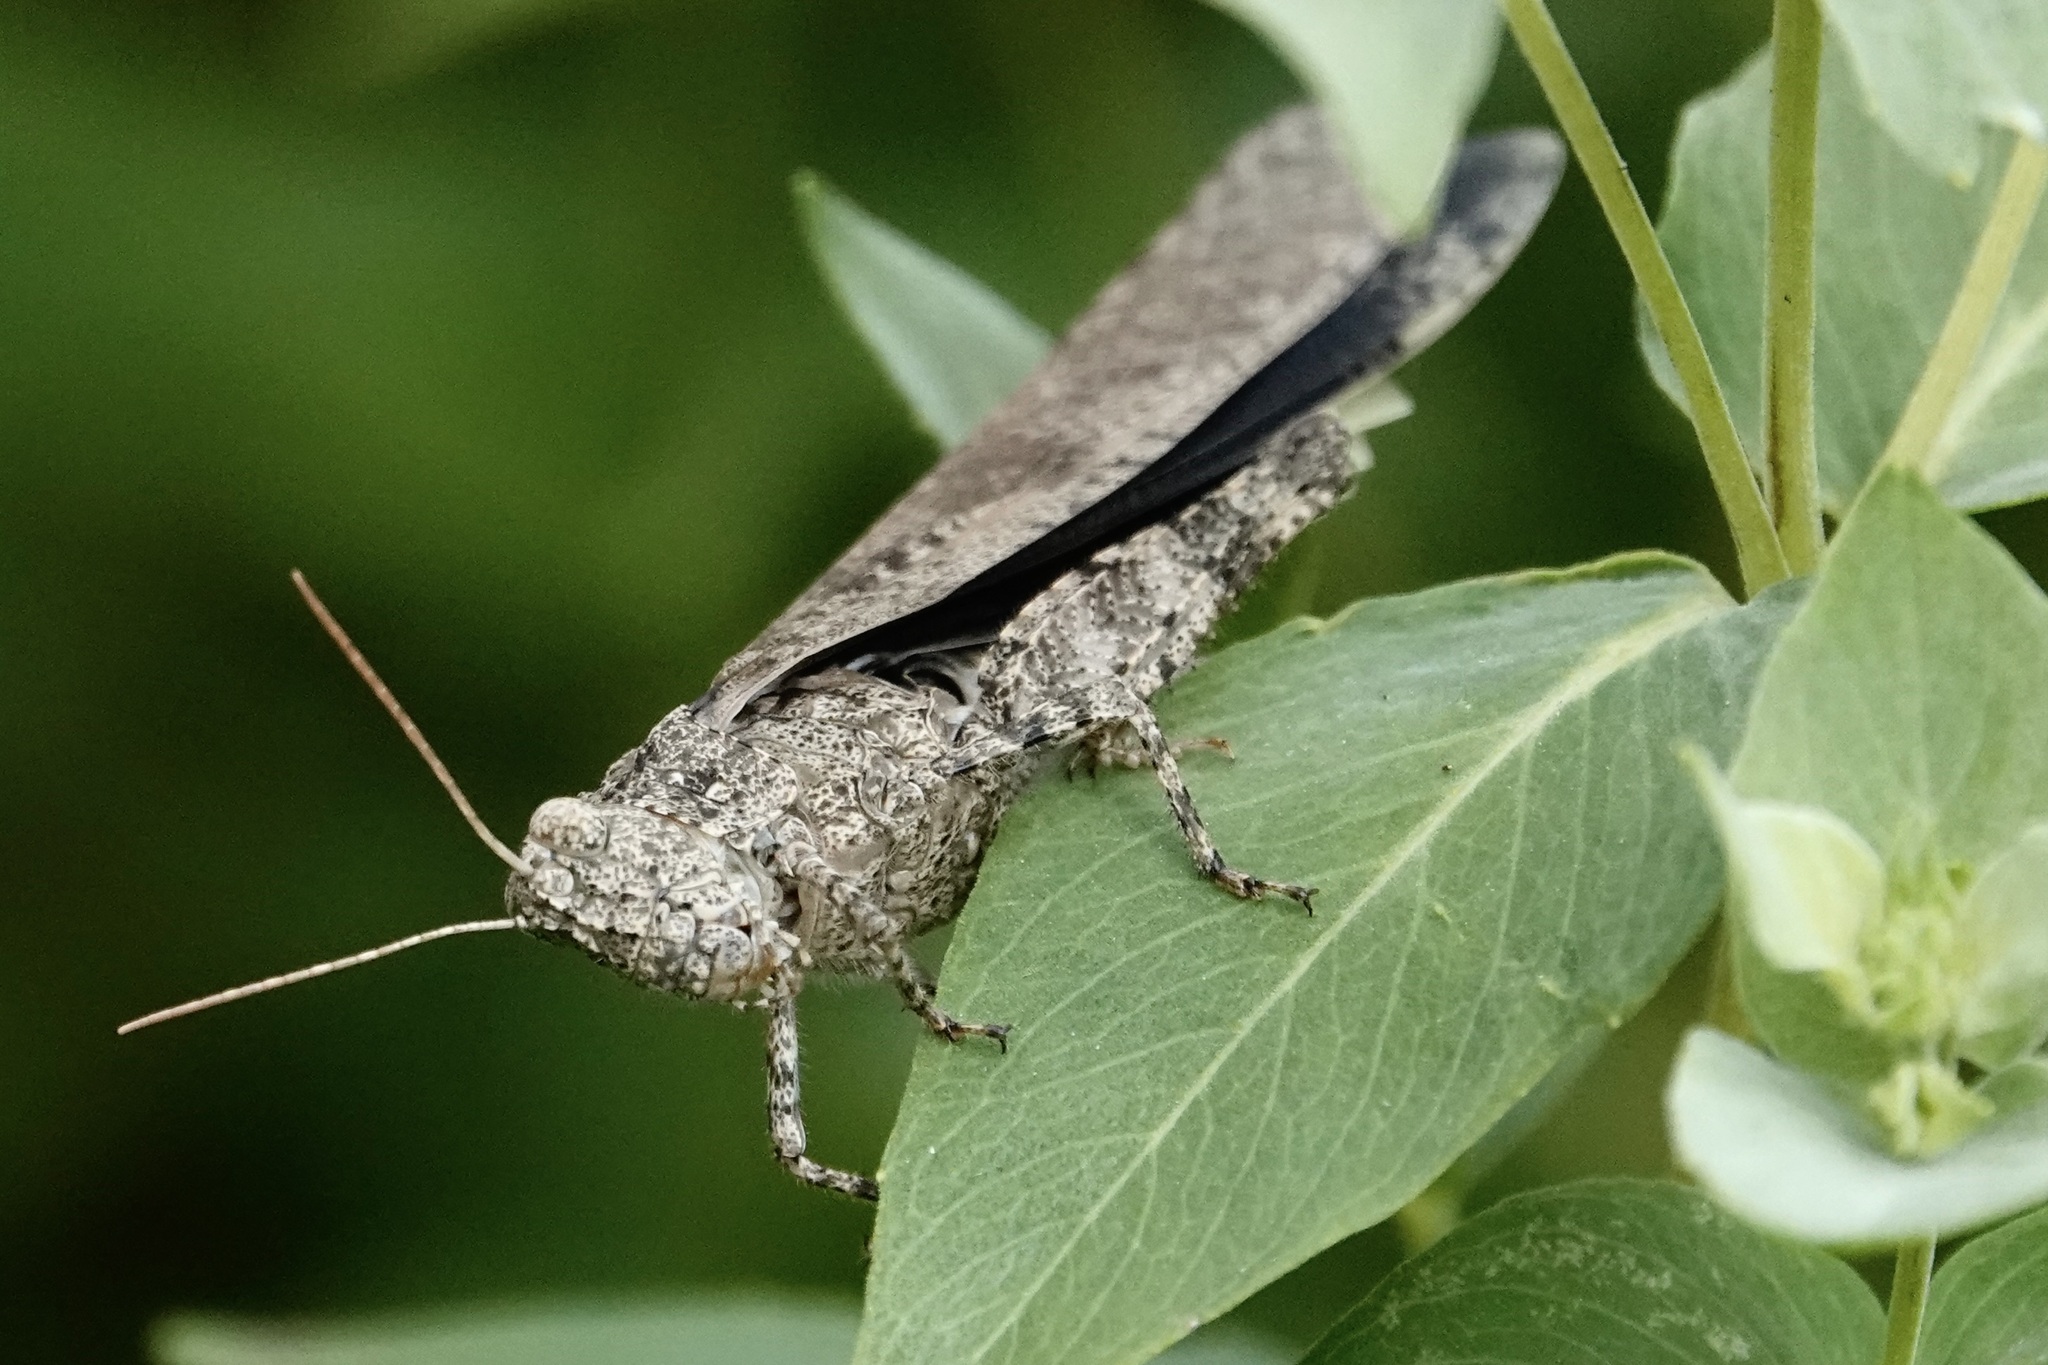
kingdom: Animalia
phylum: Arthropoda
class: Insecta
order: Orthoptera
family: Acrididae
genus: Dissosteira
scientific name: Dissosteira carolina
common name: Carolina grasshopper
